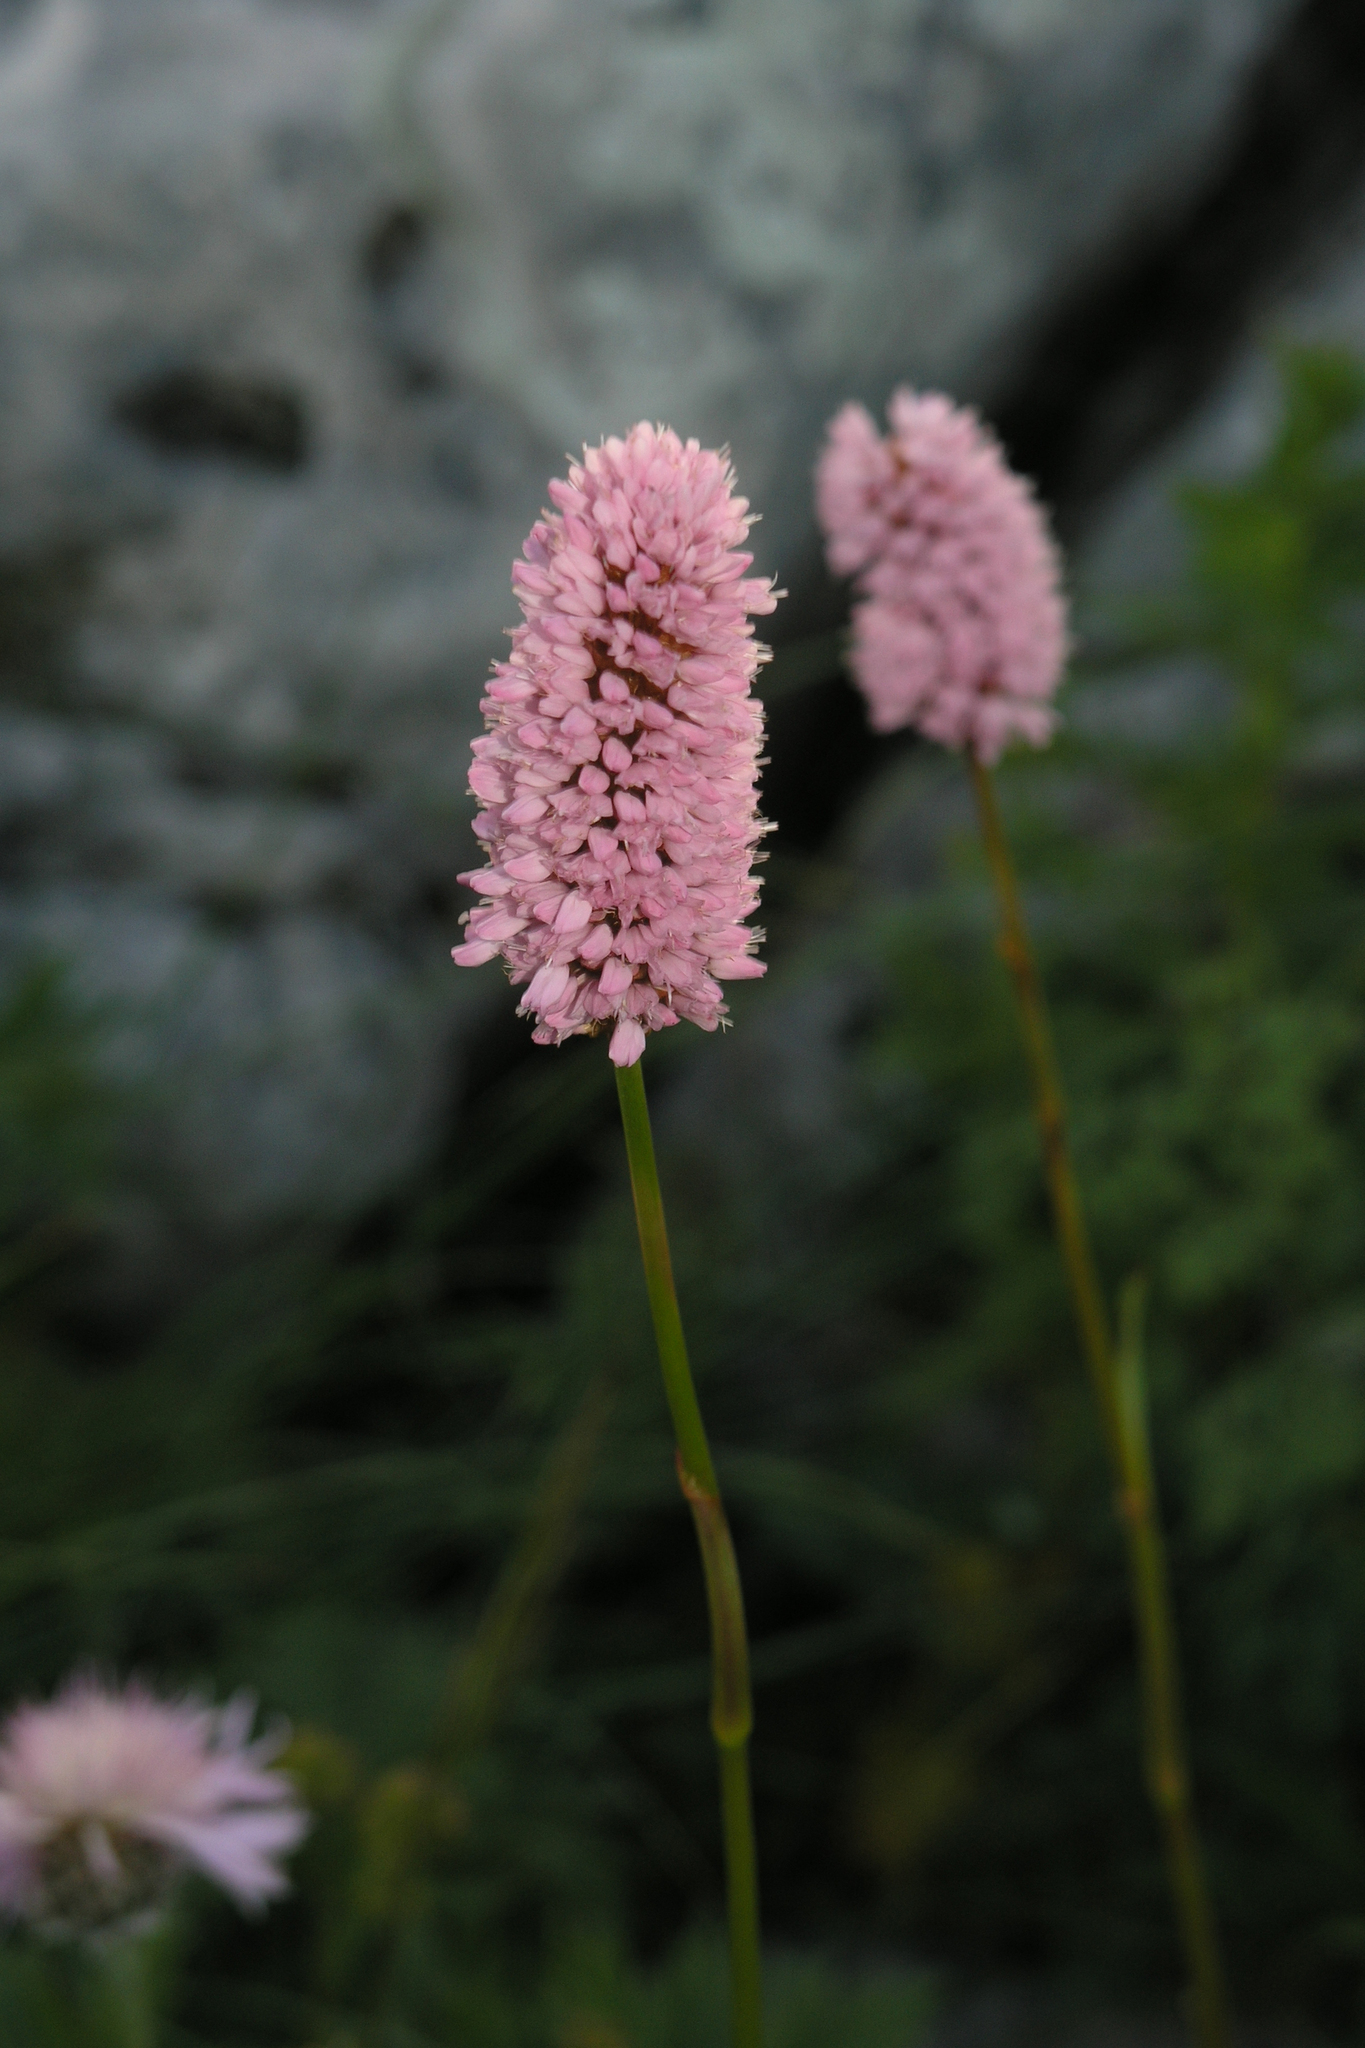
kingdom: Plantae
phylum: Tracheophyta
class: Magnoliopsida
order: Caryophyllales
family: Polygonaceae
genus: Bistorta
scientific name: Bistorta carnea
